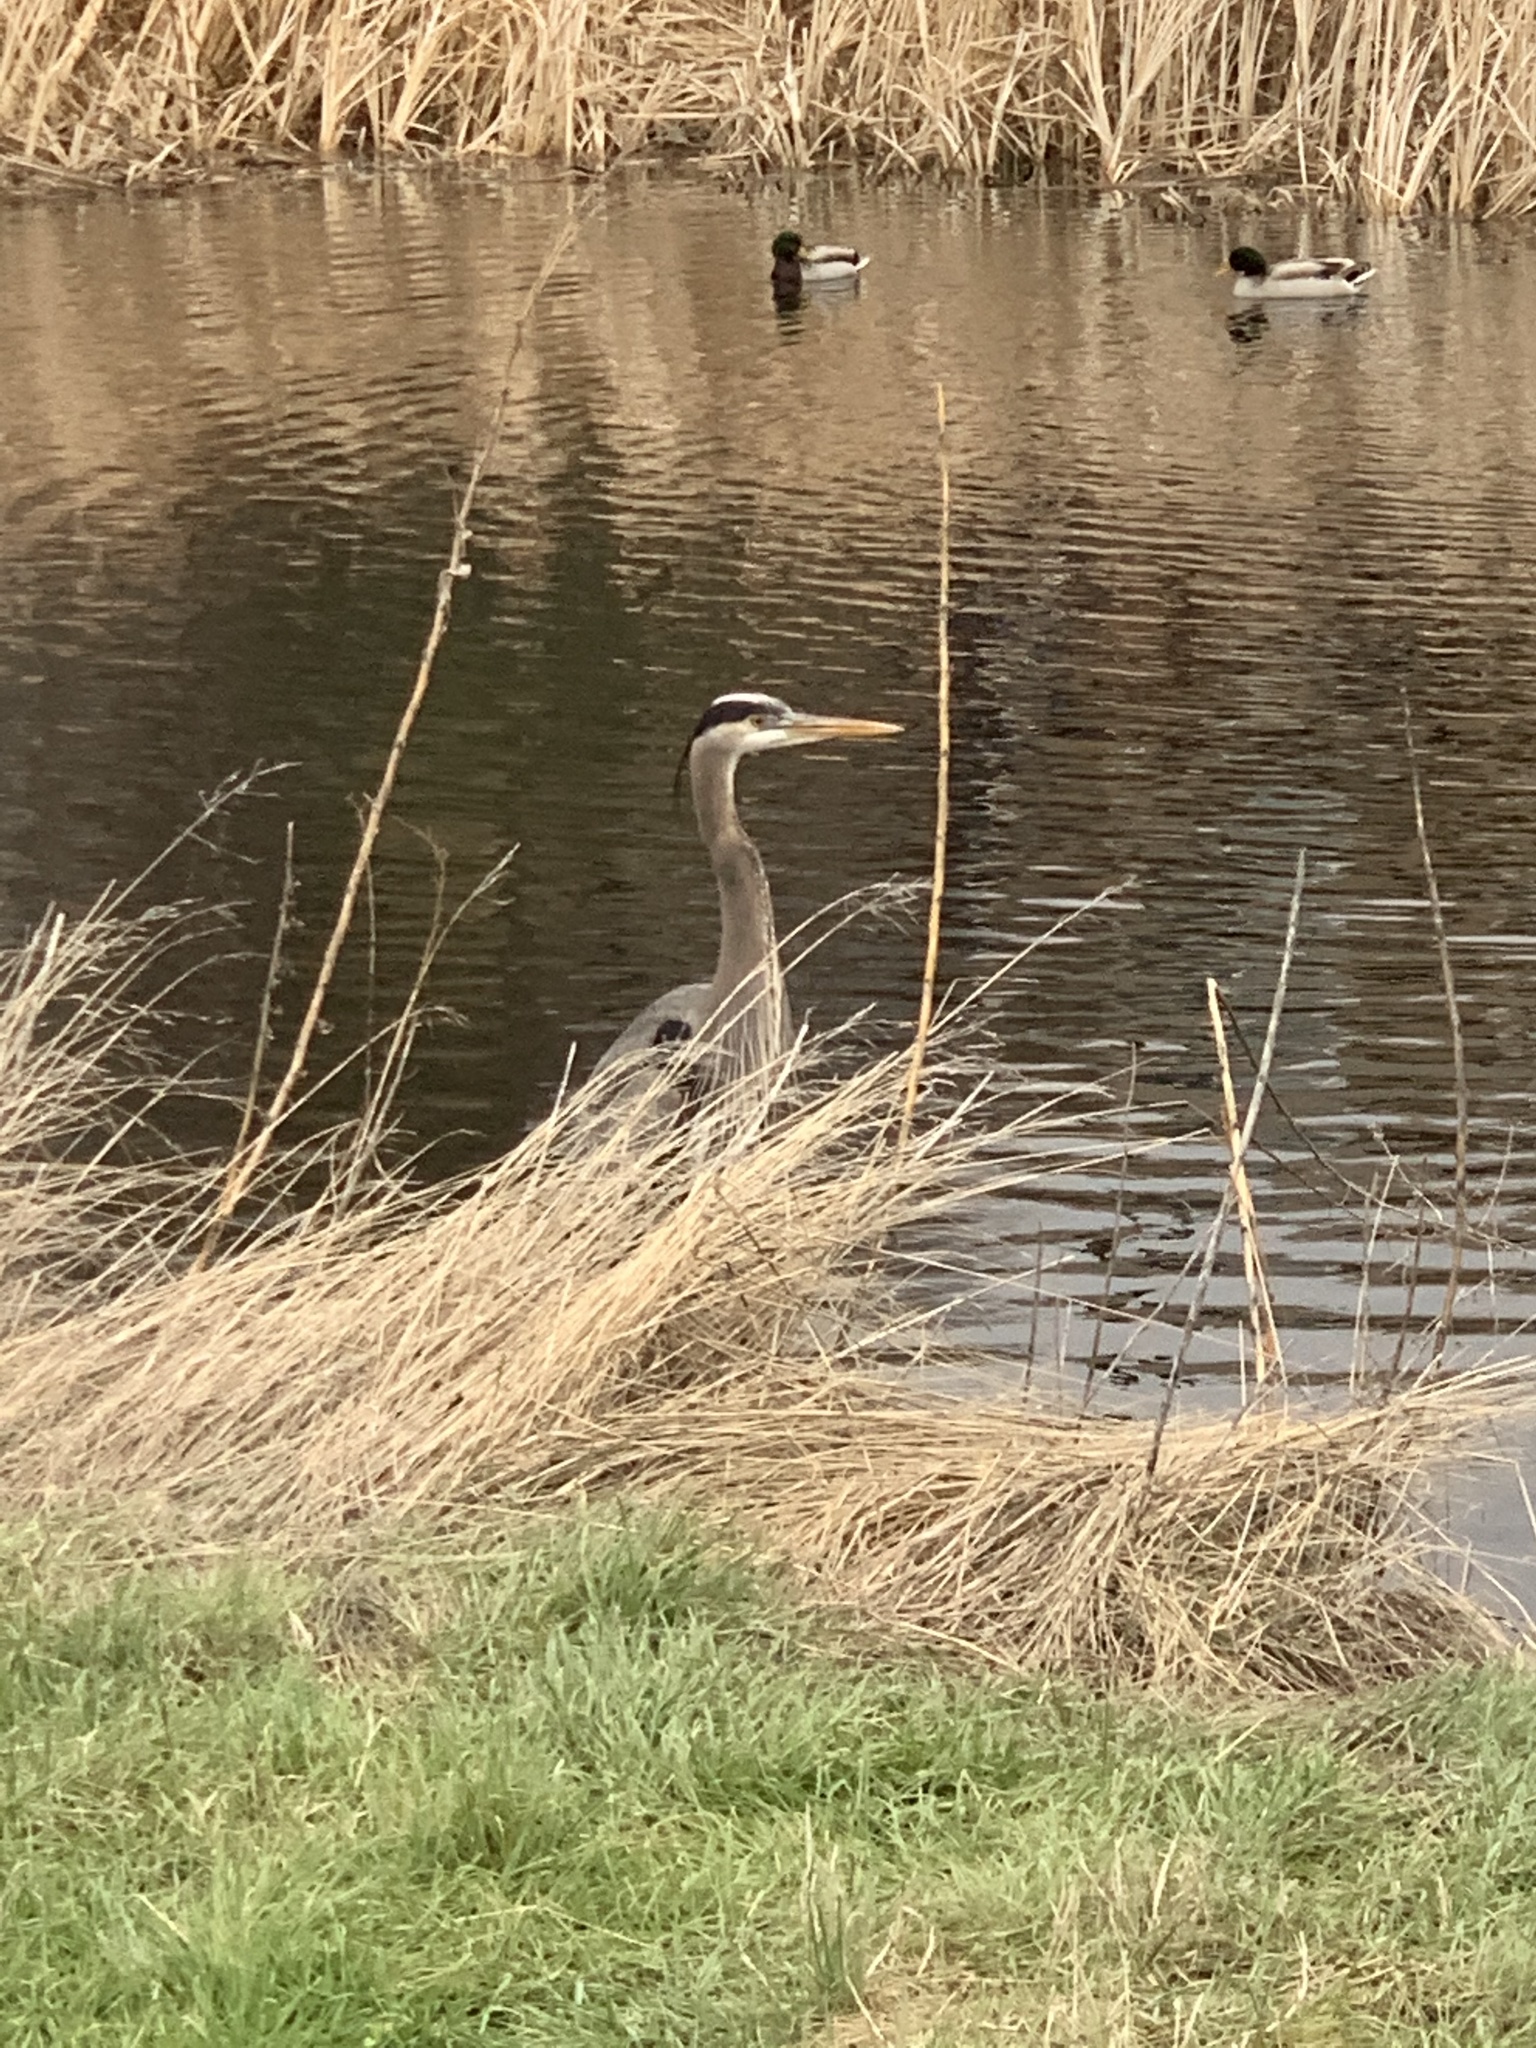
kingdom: Animalia
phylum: Chordata
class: Aves
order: Pelecaniformes
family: Ardeidae
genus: Ardea
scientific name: Ardea herodias
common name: Great blue heron
